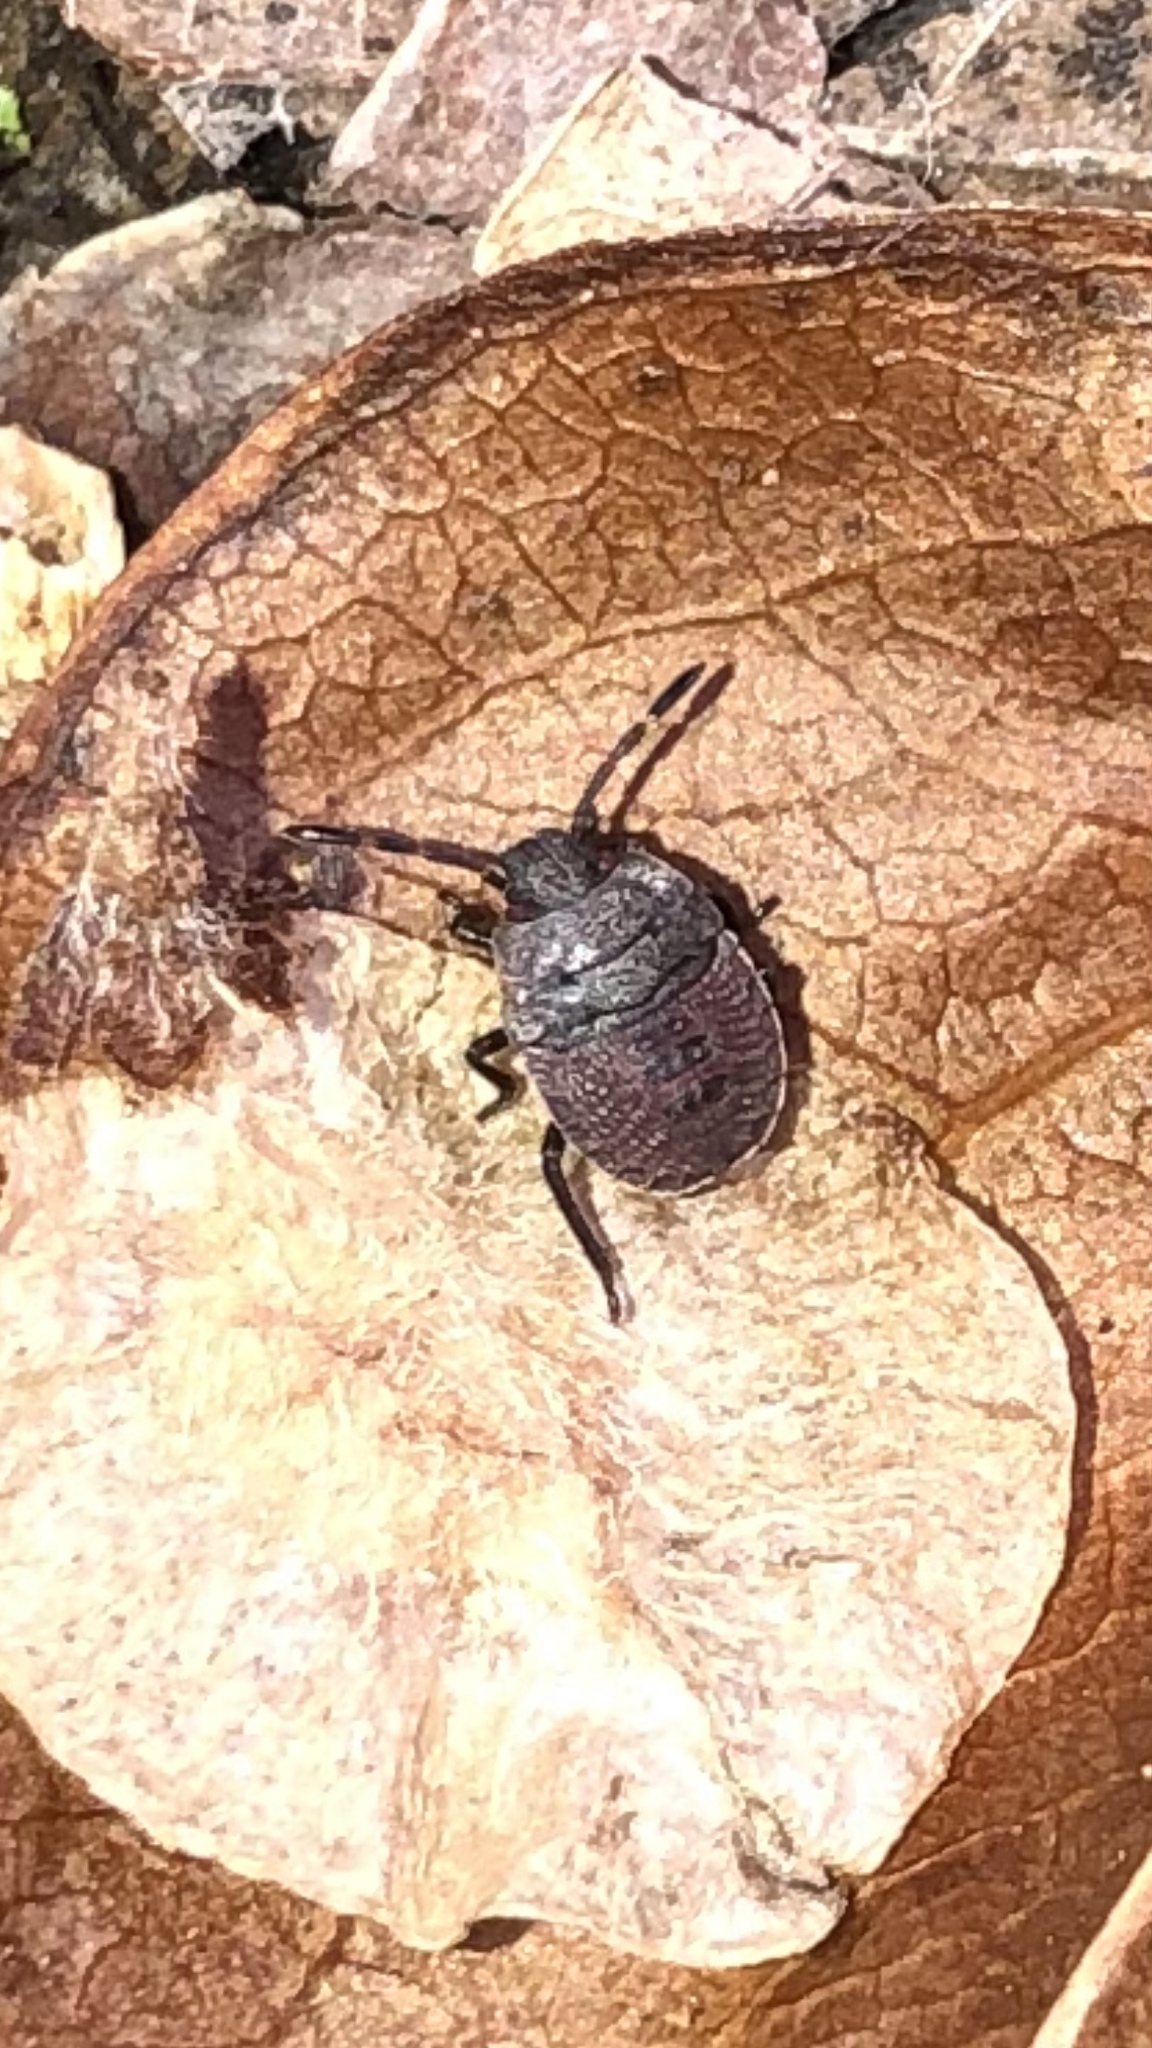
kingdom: Animalia
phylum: Arthropoda
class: Insecta
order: Hemiptera
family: Pentatomidae
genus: Menecles
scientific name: Menecles insertus
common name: Elf shoe stink bug
